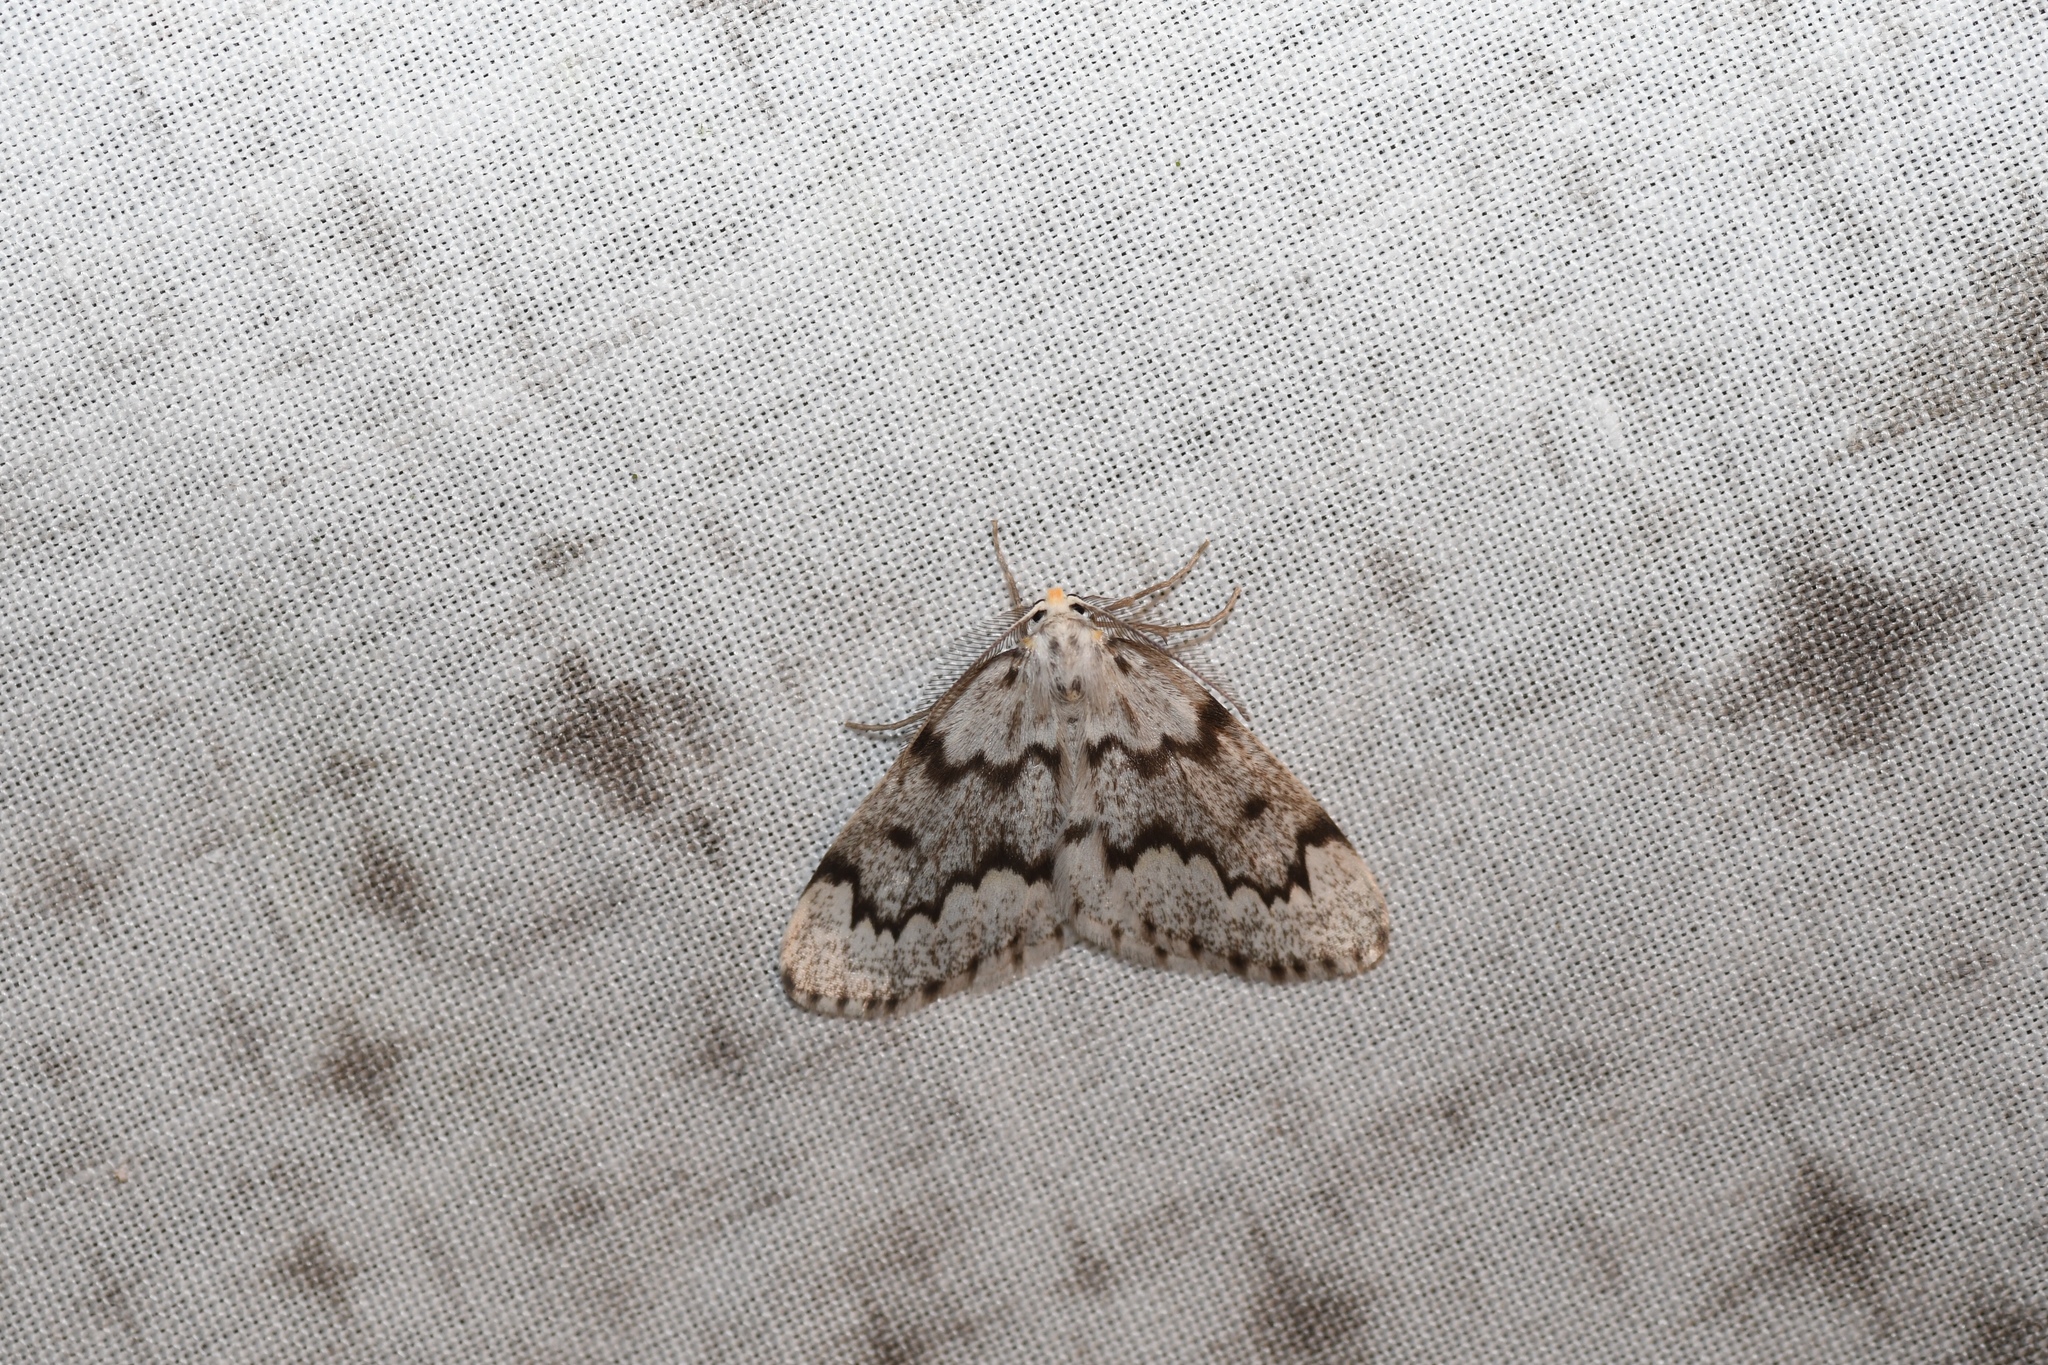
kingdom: Animalia
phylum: Arthropoda
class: Insecta
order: Lepidoptera
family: Geometridae
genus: Nepytia
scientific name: Nepytia canosaria
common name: False hemlock looper
